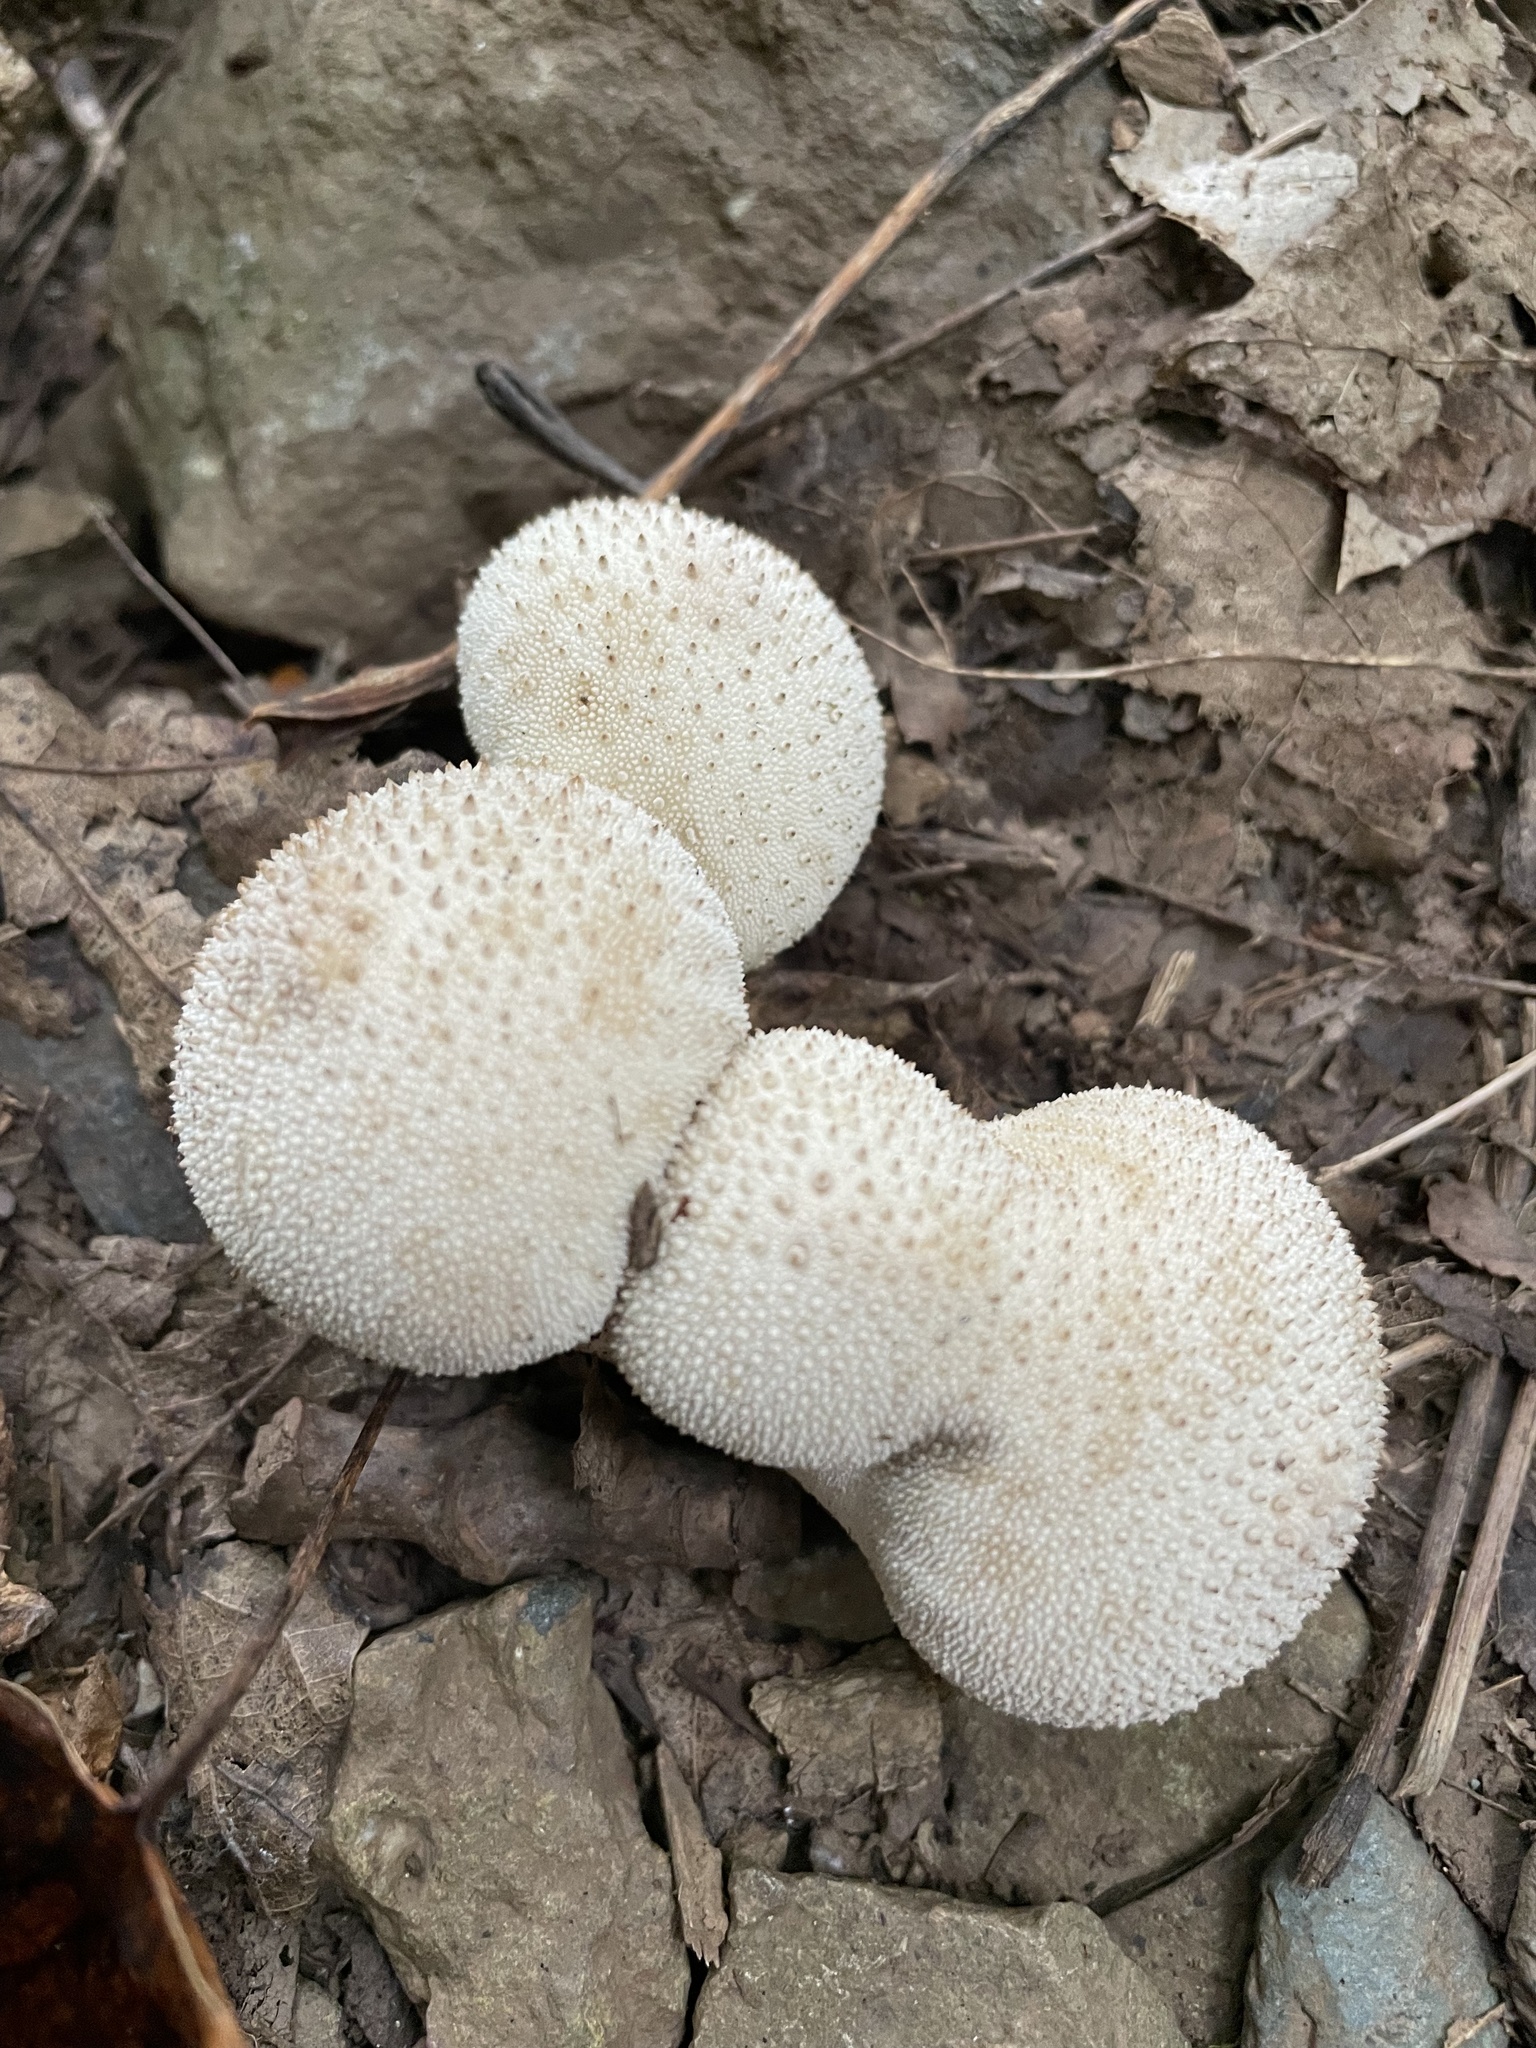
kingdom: Fungi
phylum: Basidiomycota
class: Agaricomycetes
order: Agaricales
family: Lycoperdaceae
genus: Lycoperdon
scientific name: Lycoperdon perlatum
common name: Common puffball
